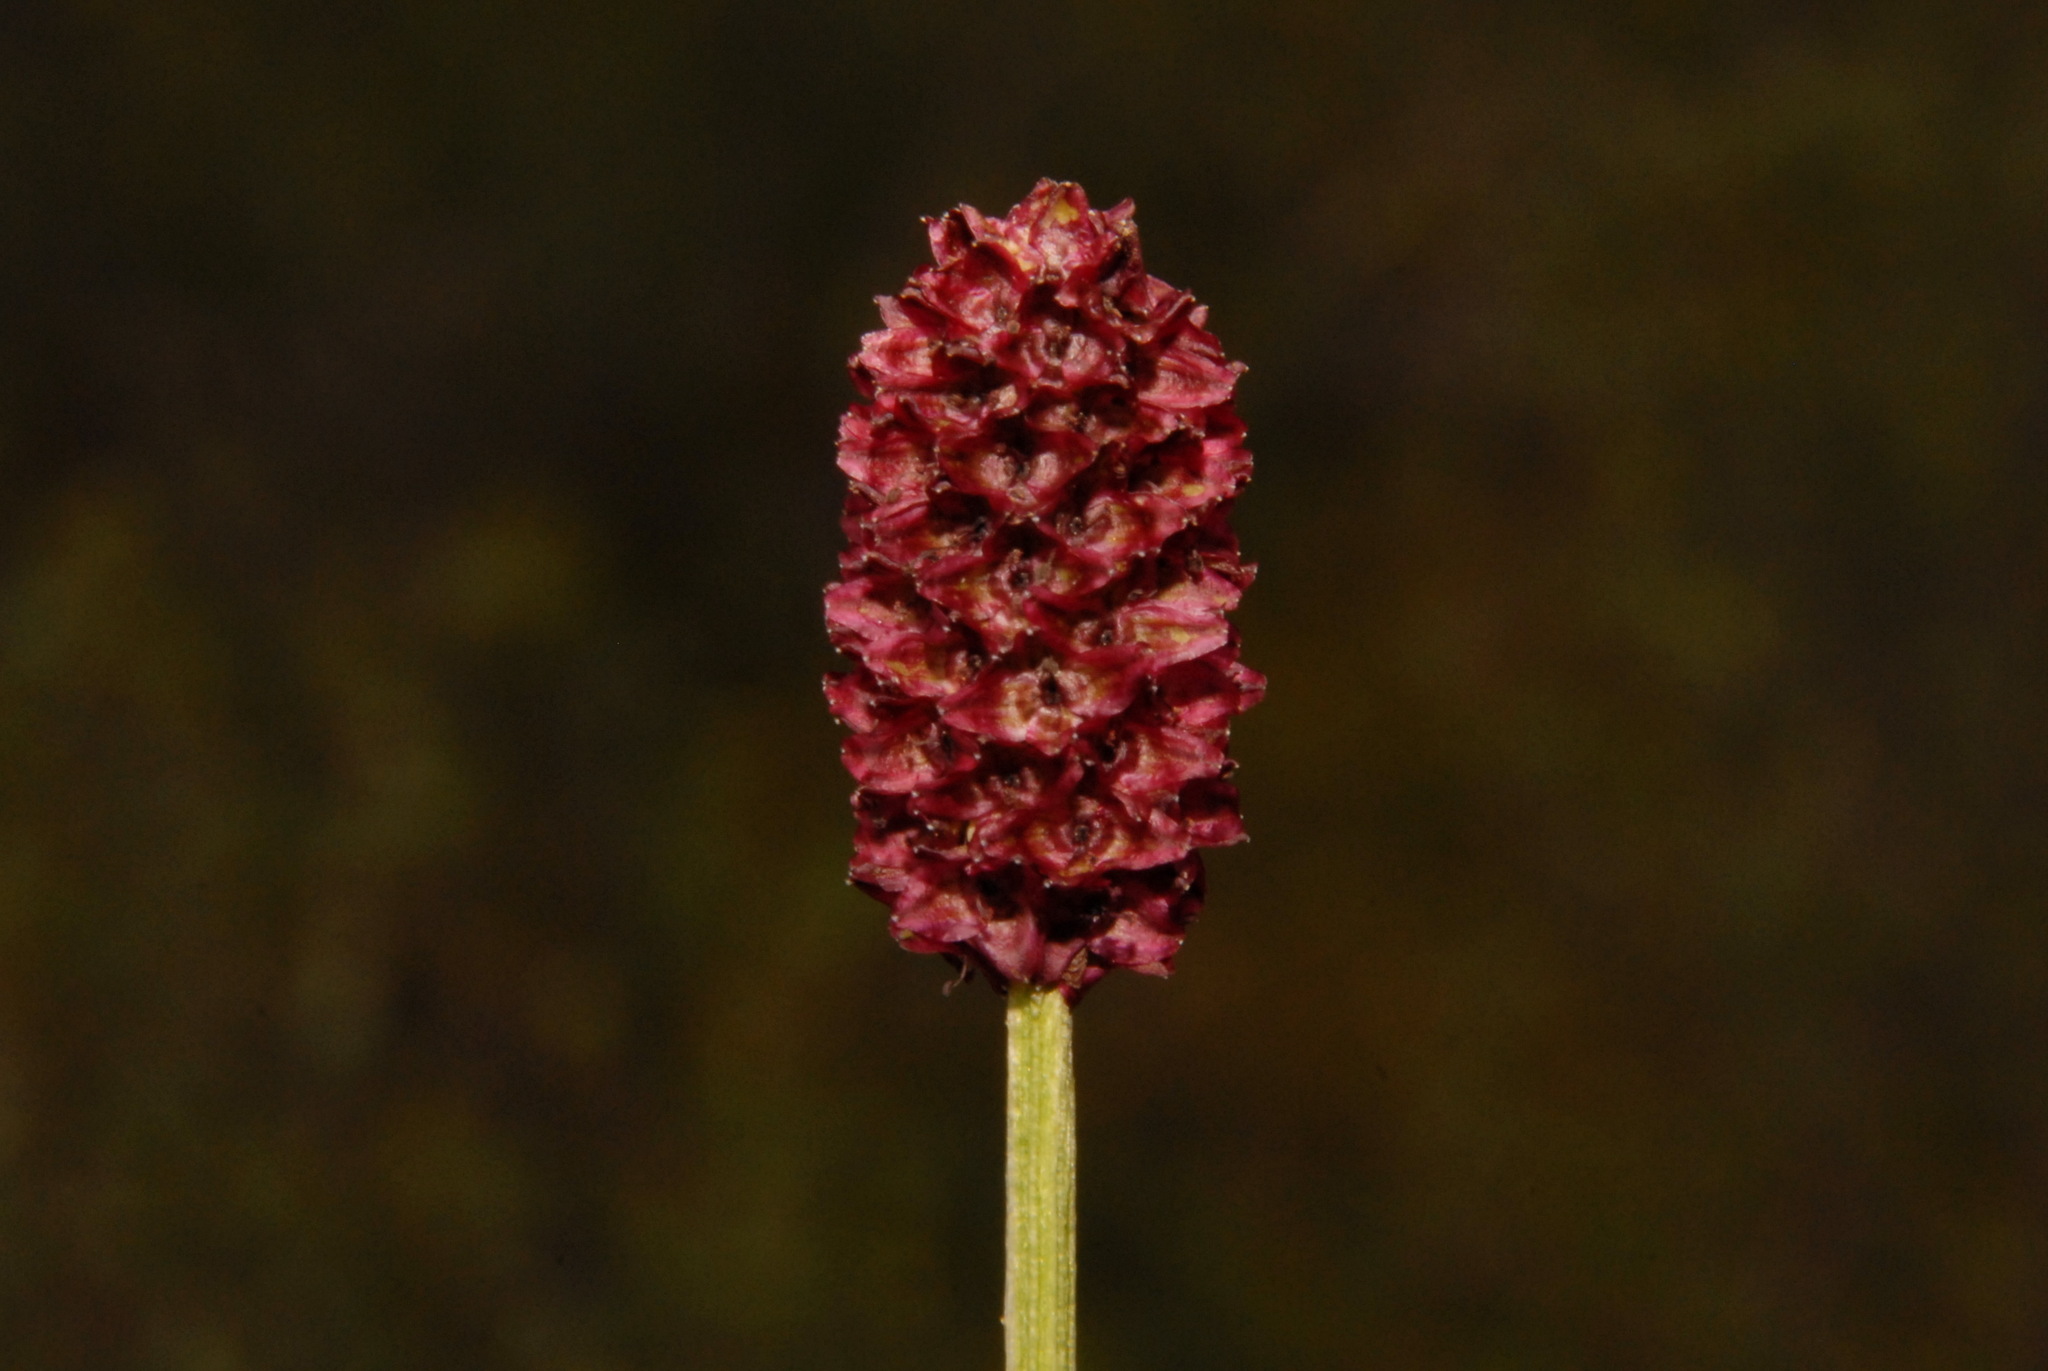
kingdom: Plantae
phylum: Tracheophyta
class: Magnoliopsida
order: Rosales
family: Rosaceae
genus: Sanguisorba
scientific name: Sanguisorba officinalis
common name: Great burnet
